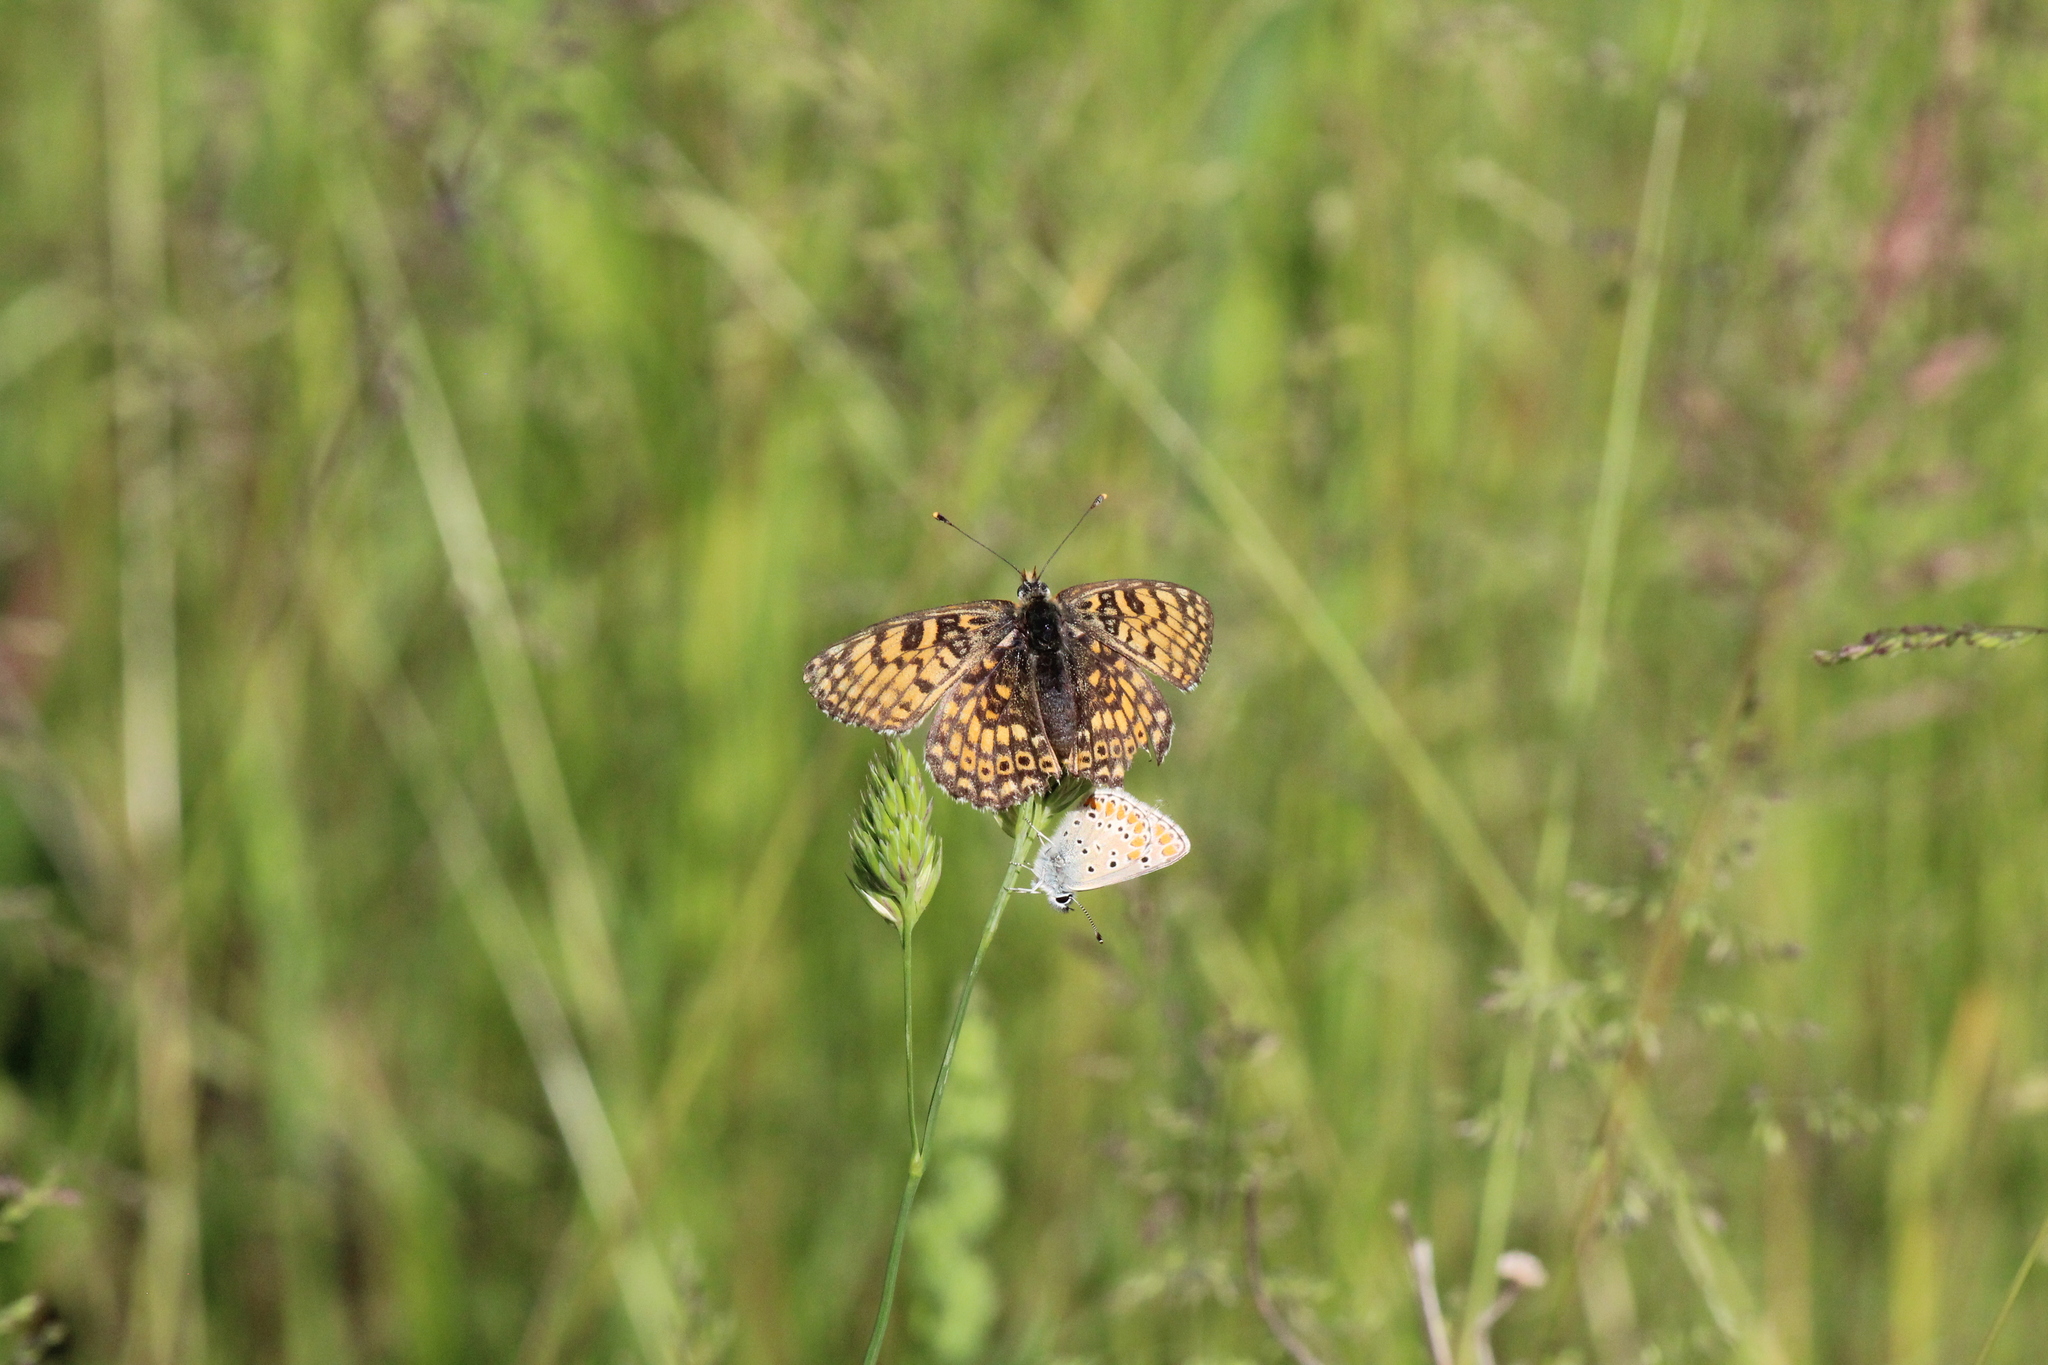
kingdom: Animalia
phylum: Arthropoda
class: Insecta
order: Lepidoptera
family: Nymphalidae
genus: Melitaea
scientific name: Melitaea cinxia
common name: Glanville fritillary
